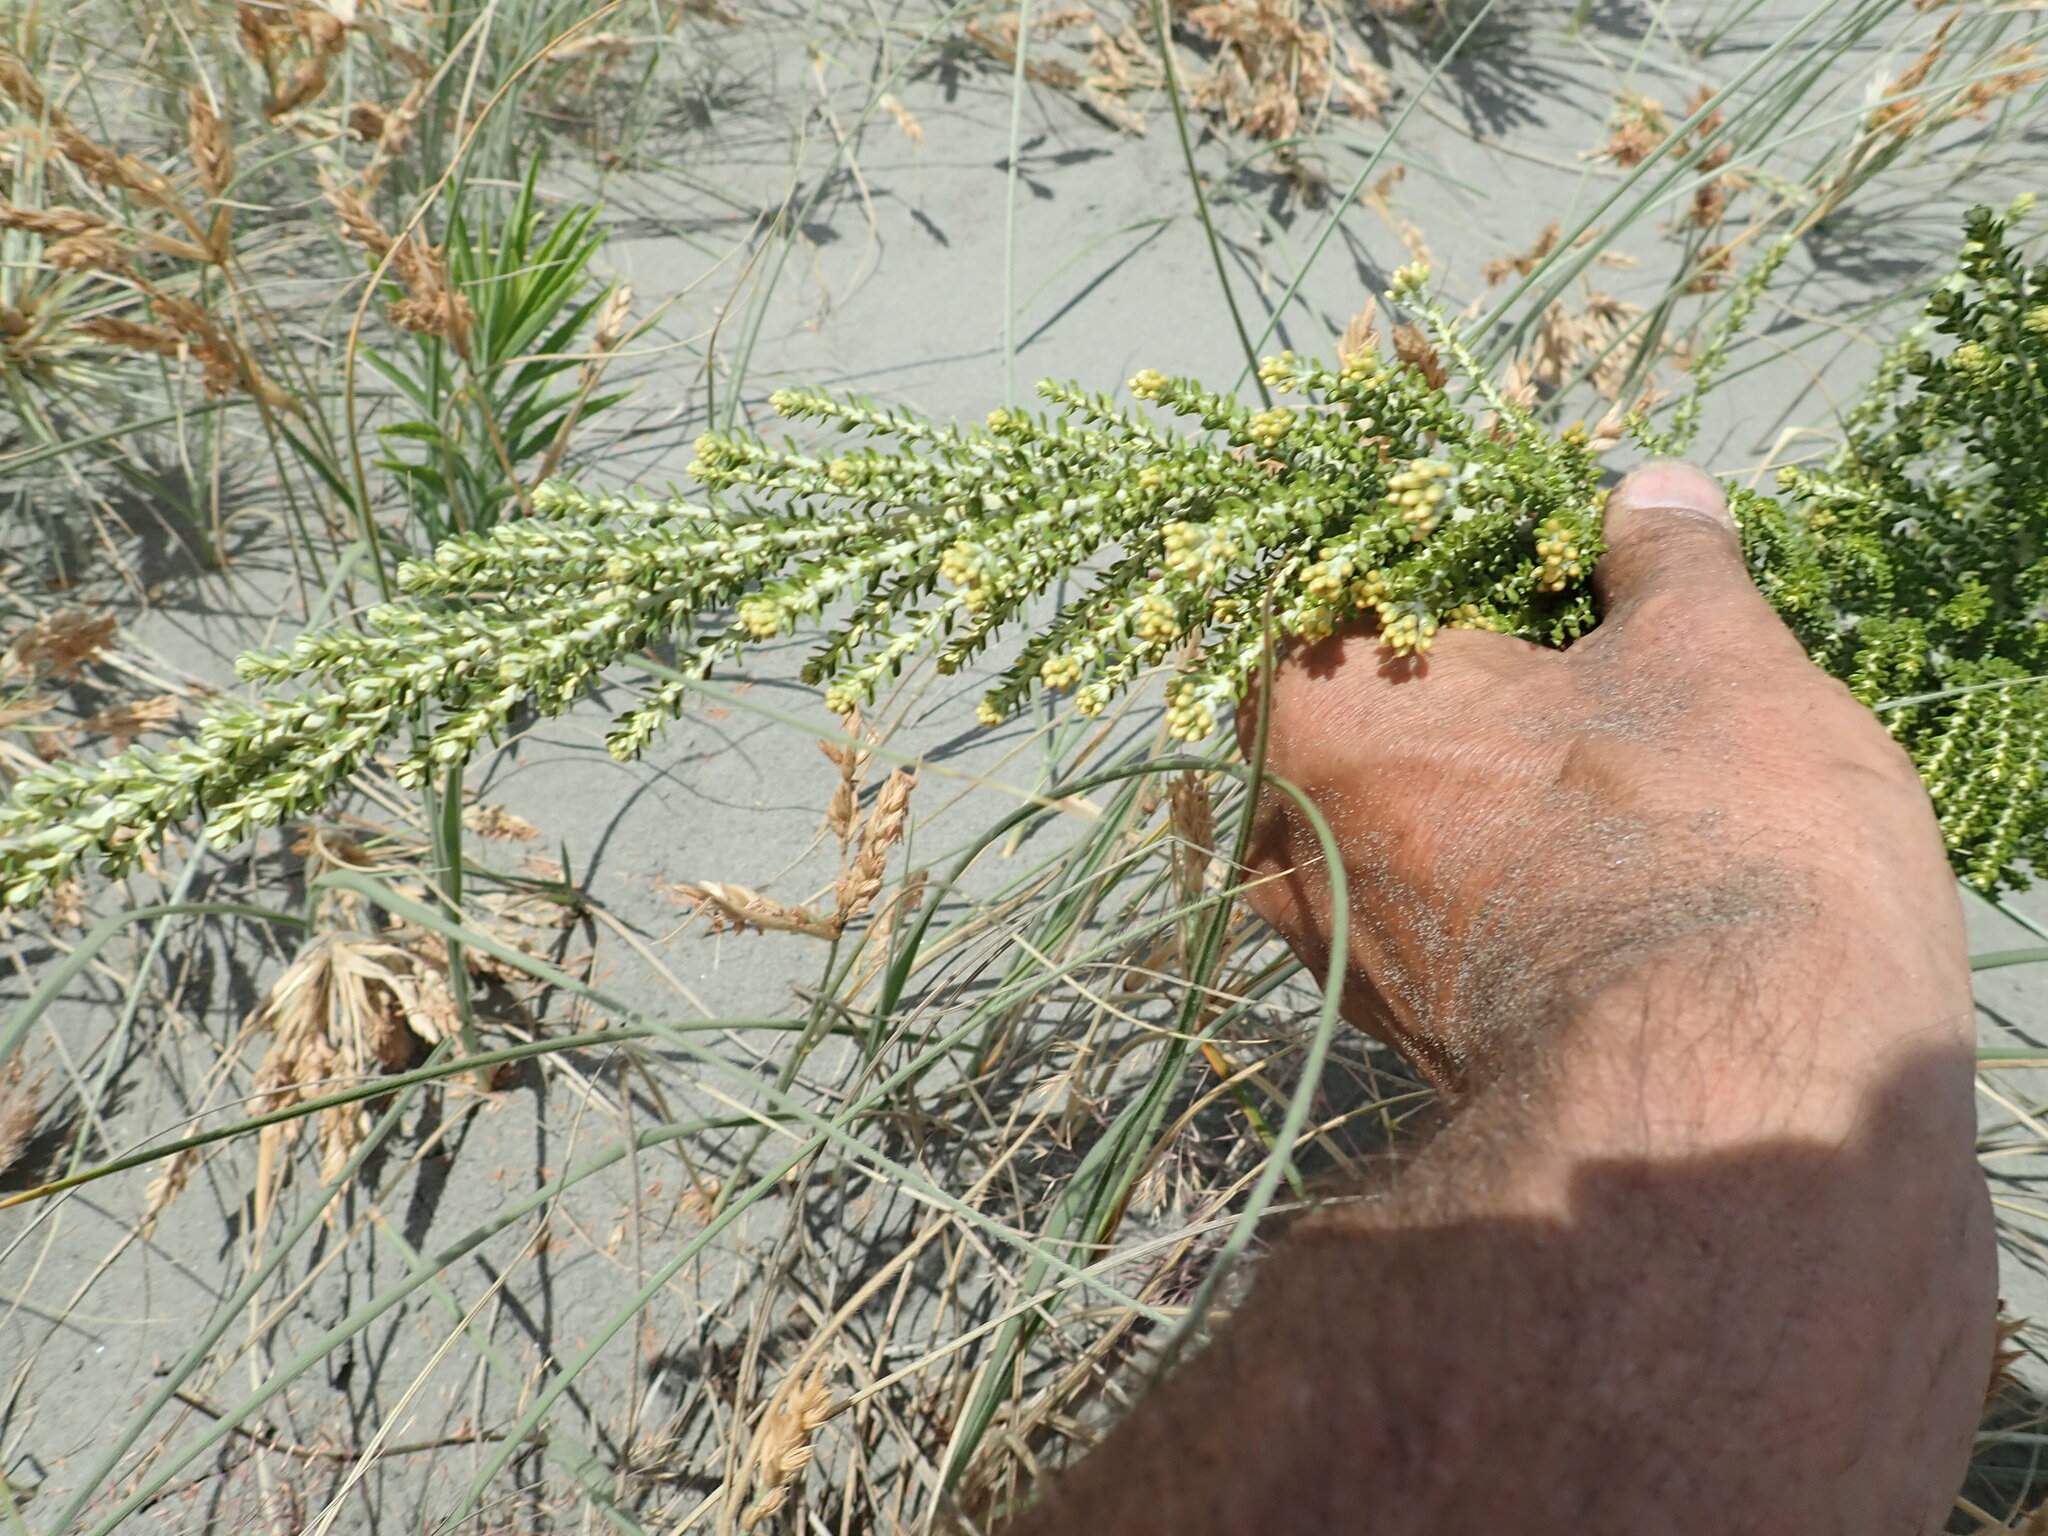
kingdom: Plantae
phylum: Tracheophyta
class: Magnoliopsida
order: Asterales
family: Asteraceae
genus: Ozothamnus
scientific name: Ozothamnus leptophyllus
